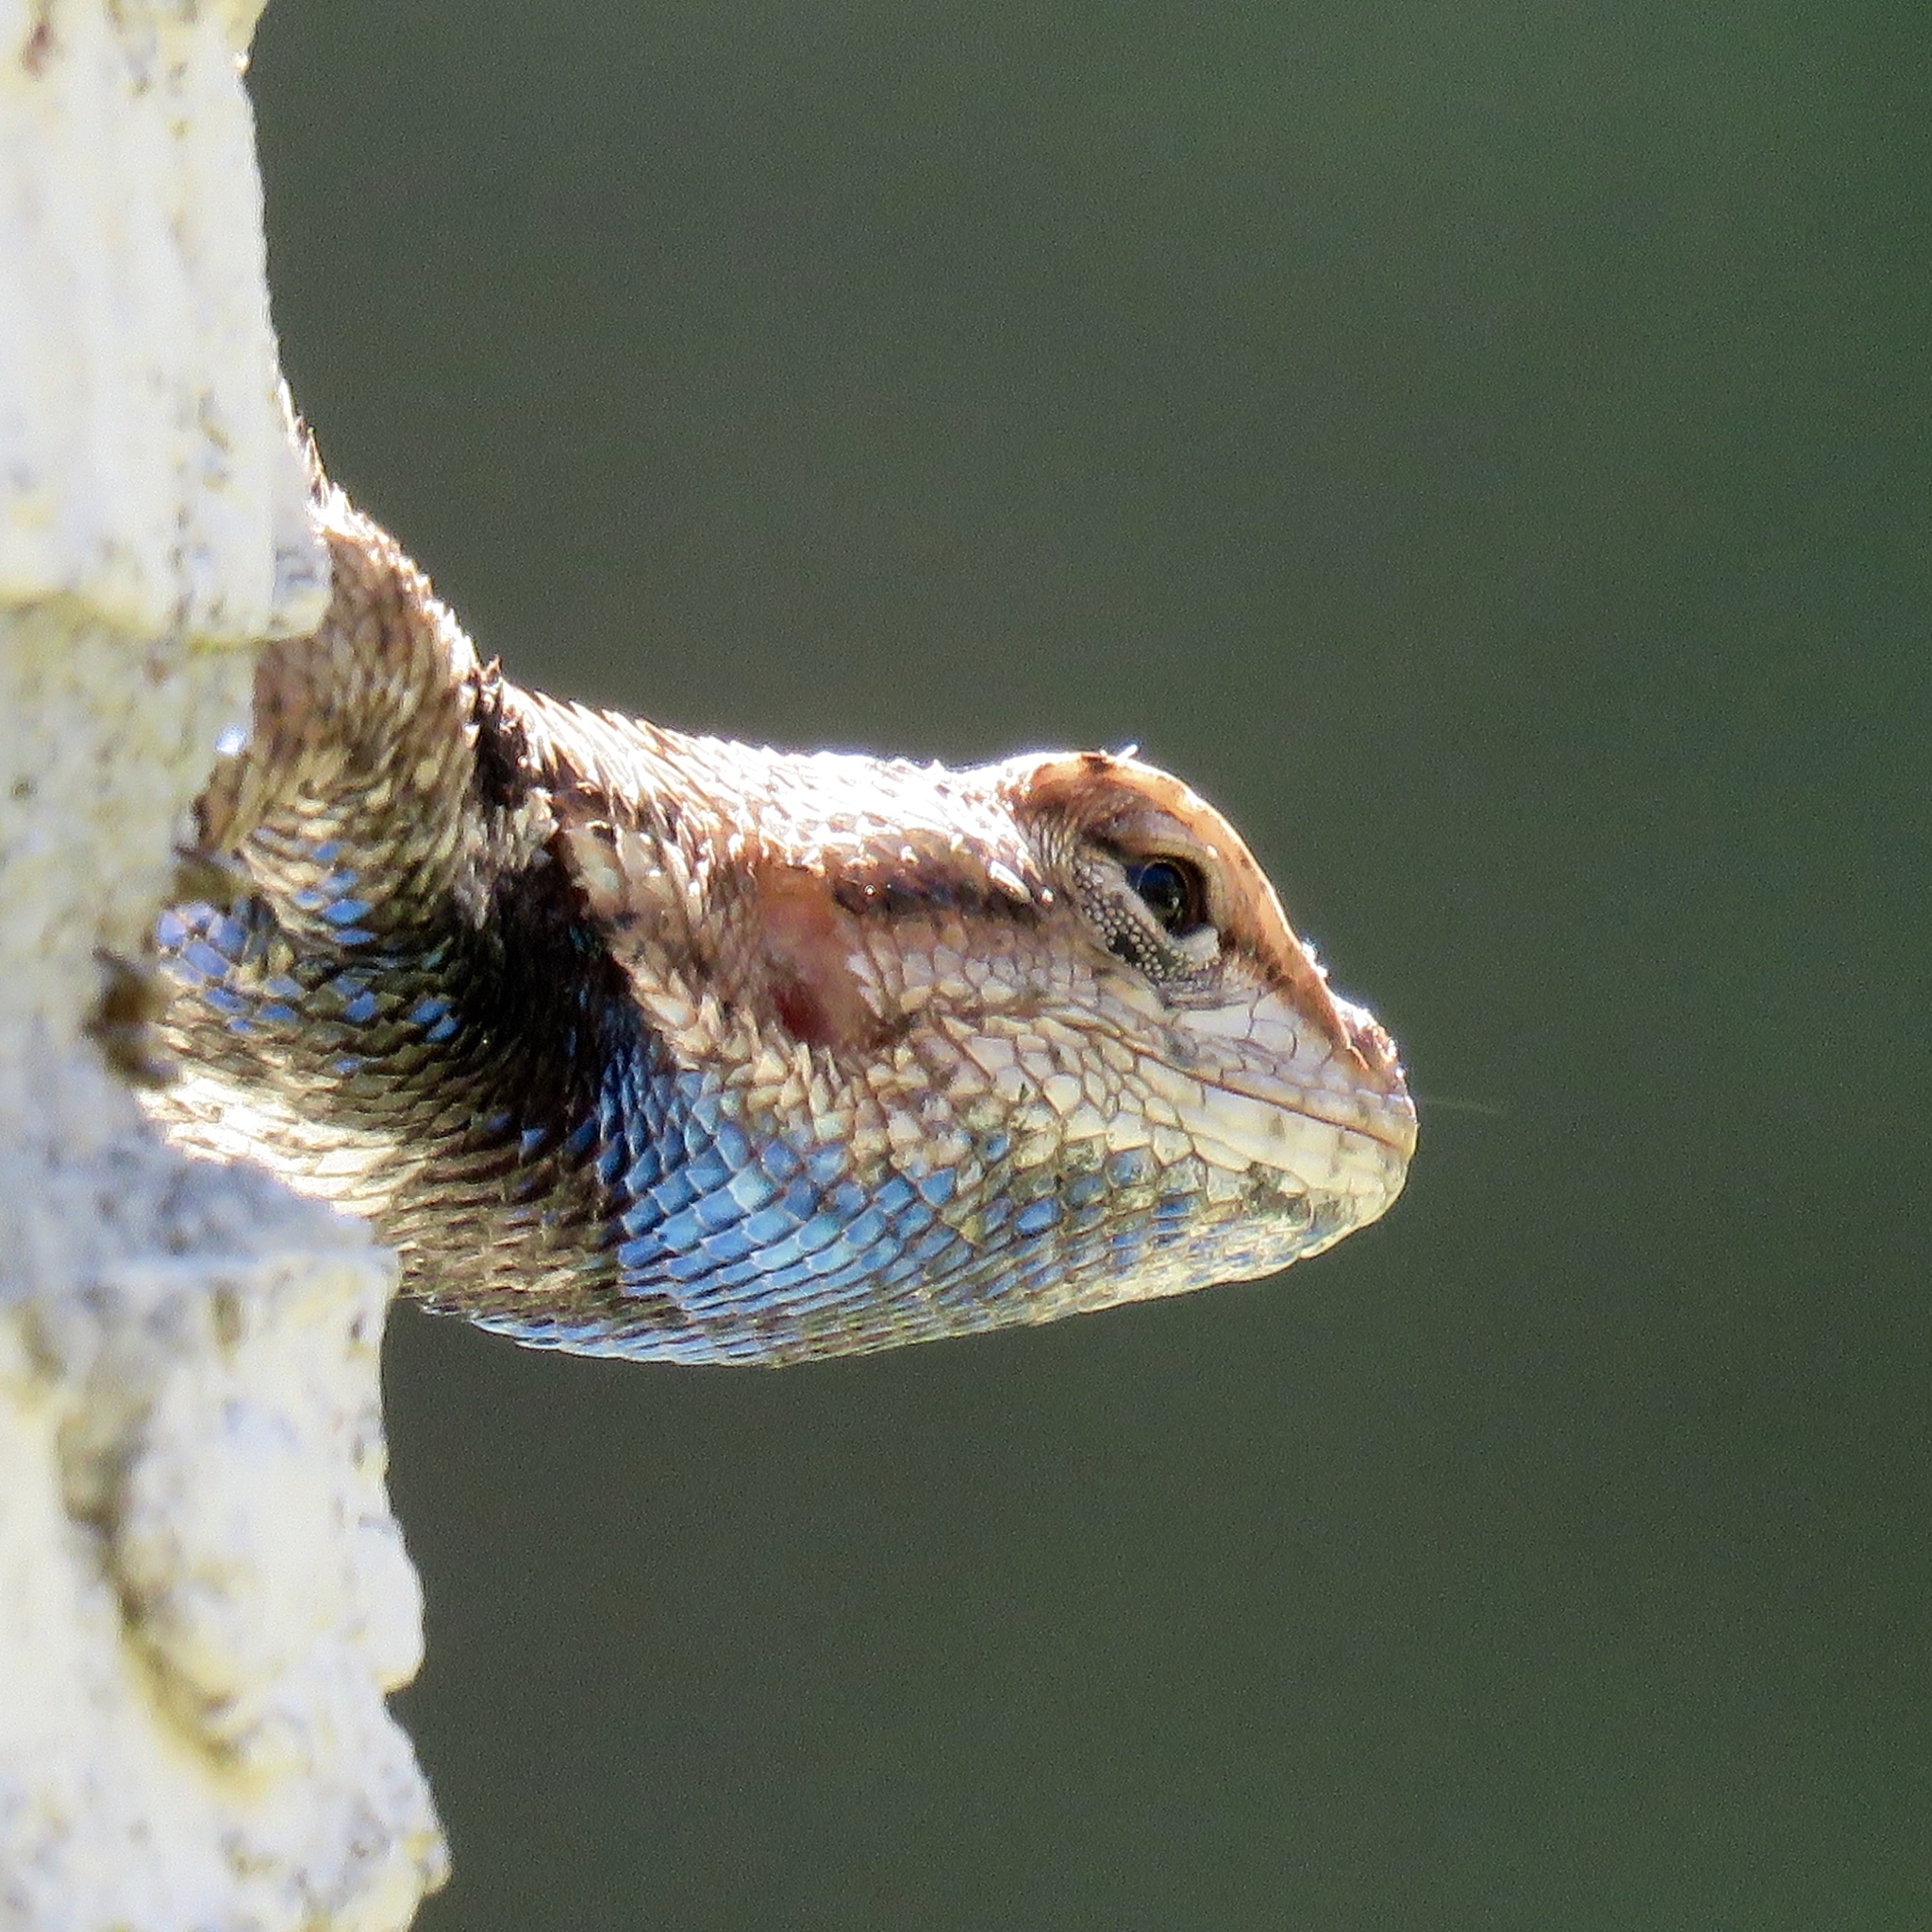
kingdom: Animalia
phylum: Chordata
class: Squamata
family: Phrynosomatidae
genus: Sceloporus
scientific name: Sceloporus consobrinus
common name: Southern prairie lizard
